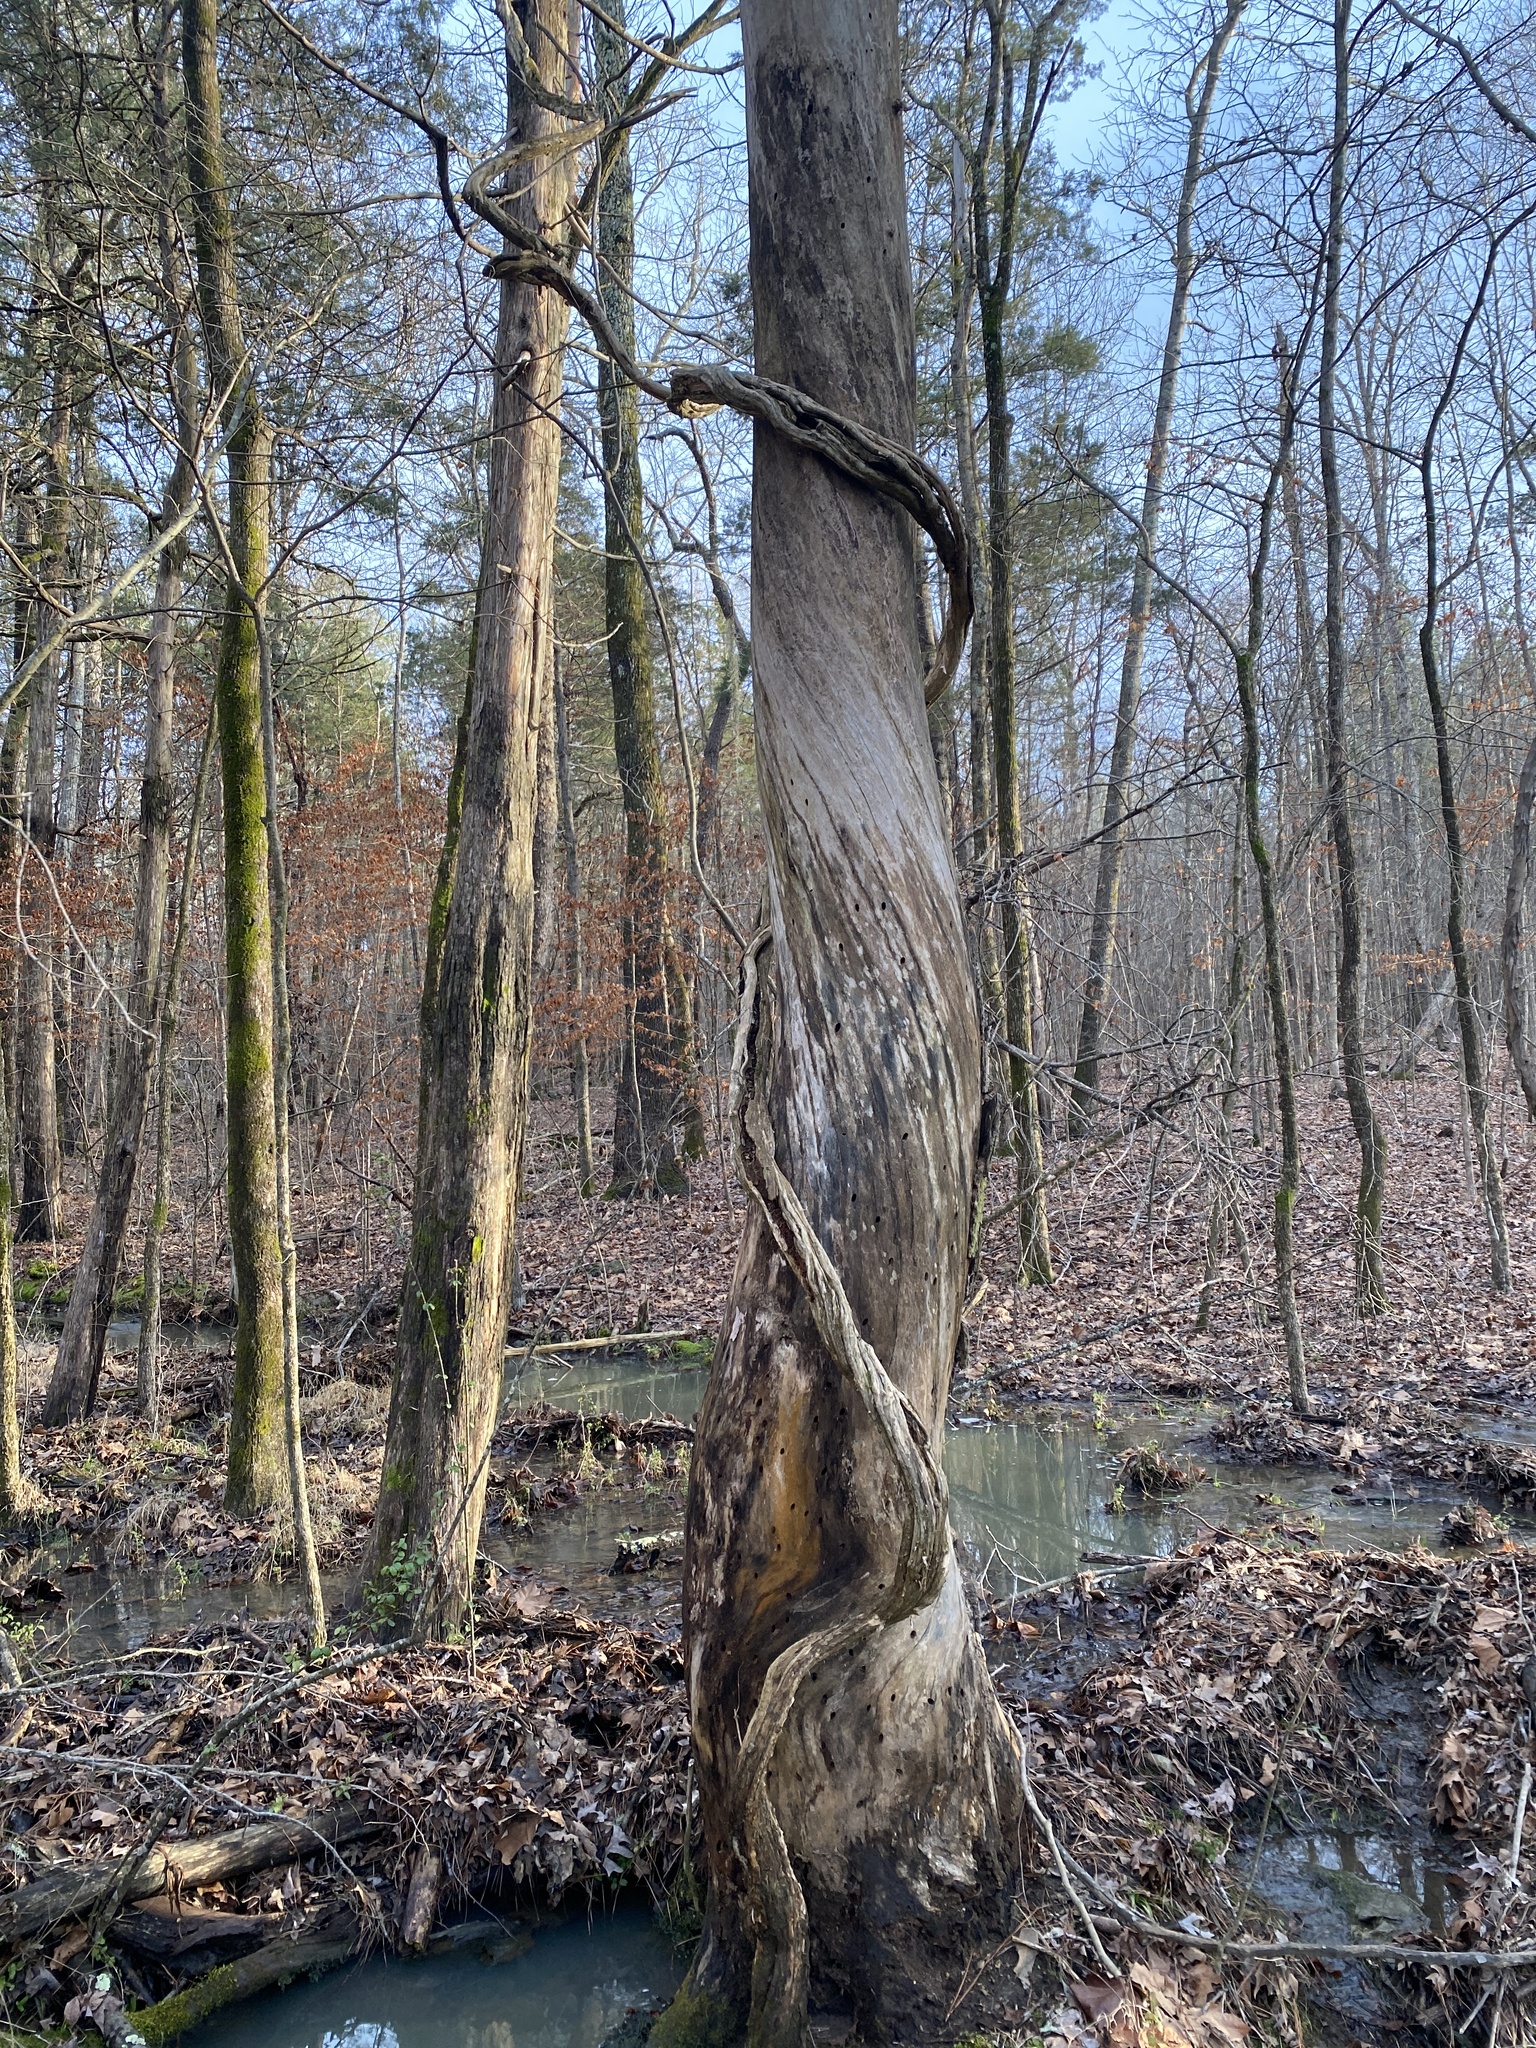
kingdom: Plantae
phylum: Tracheophyta
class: Magnoliopsida
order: Lamiales
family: Bignoniaceae
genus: Campsis
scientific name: Campsis radicans
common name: Trumpet-creeper
